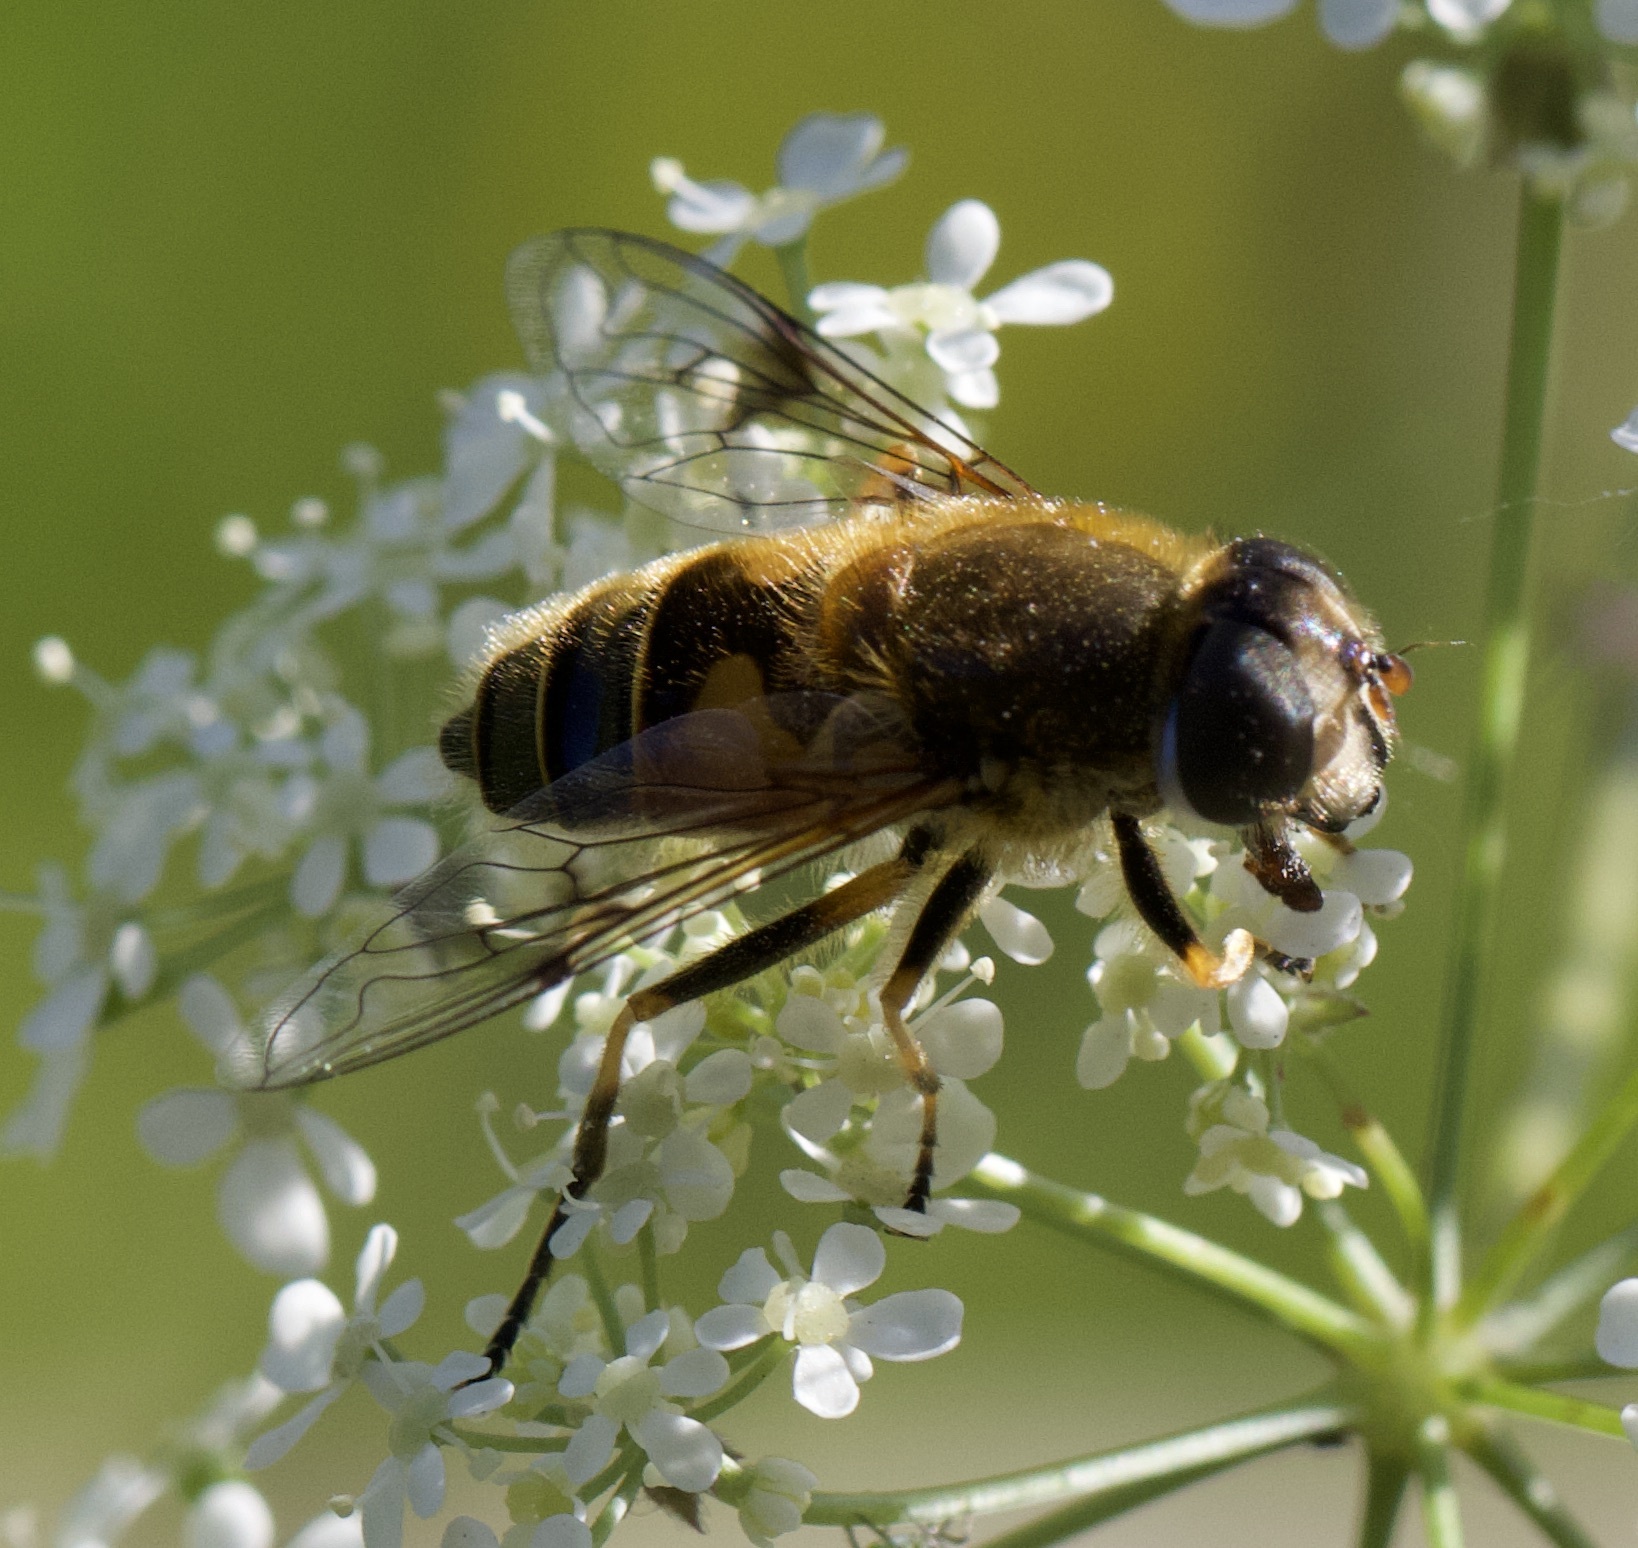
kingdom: Animalia
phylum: Arthropoda
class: Insecta
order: Diptera
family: Syrphidae
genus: Cheilosia
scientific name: Cheilosia morio
